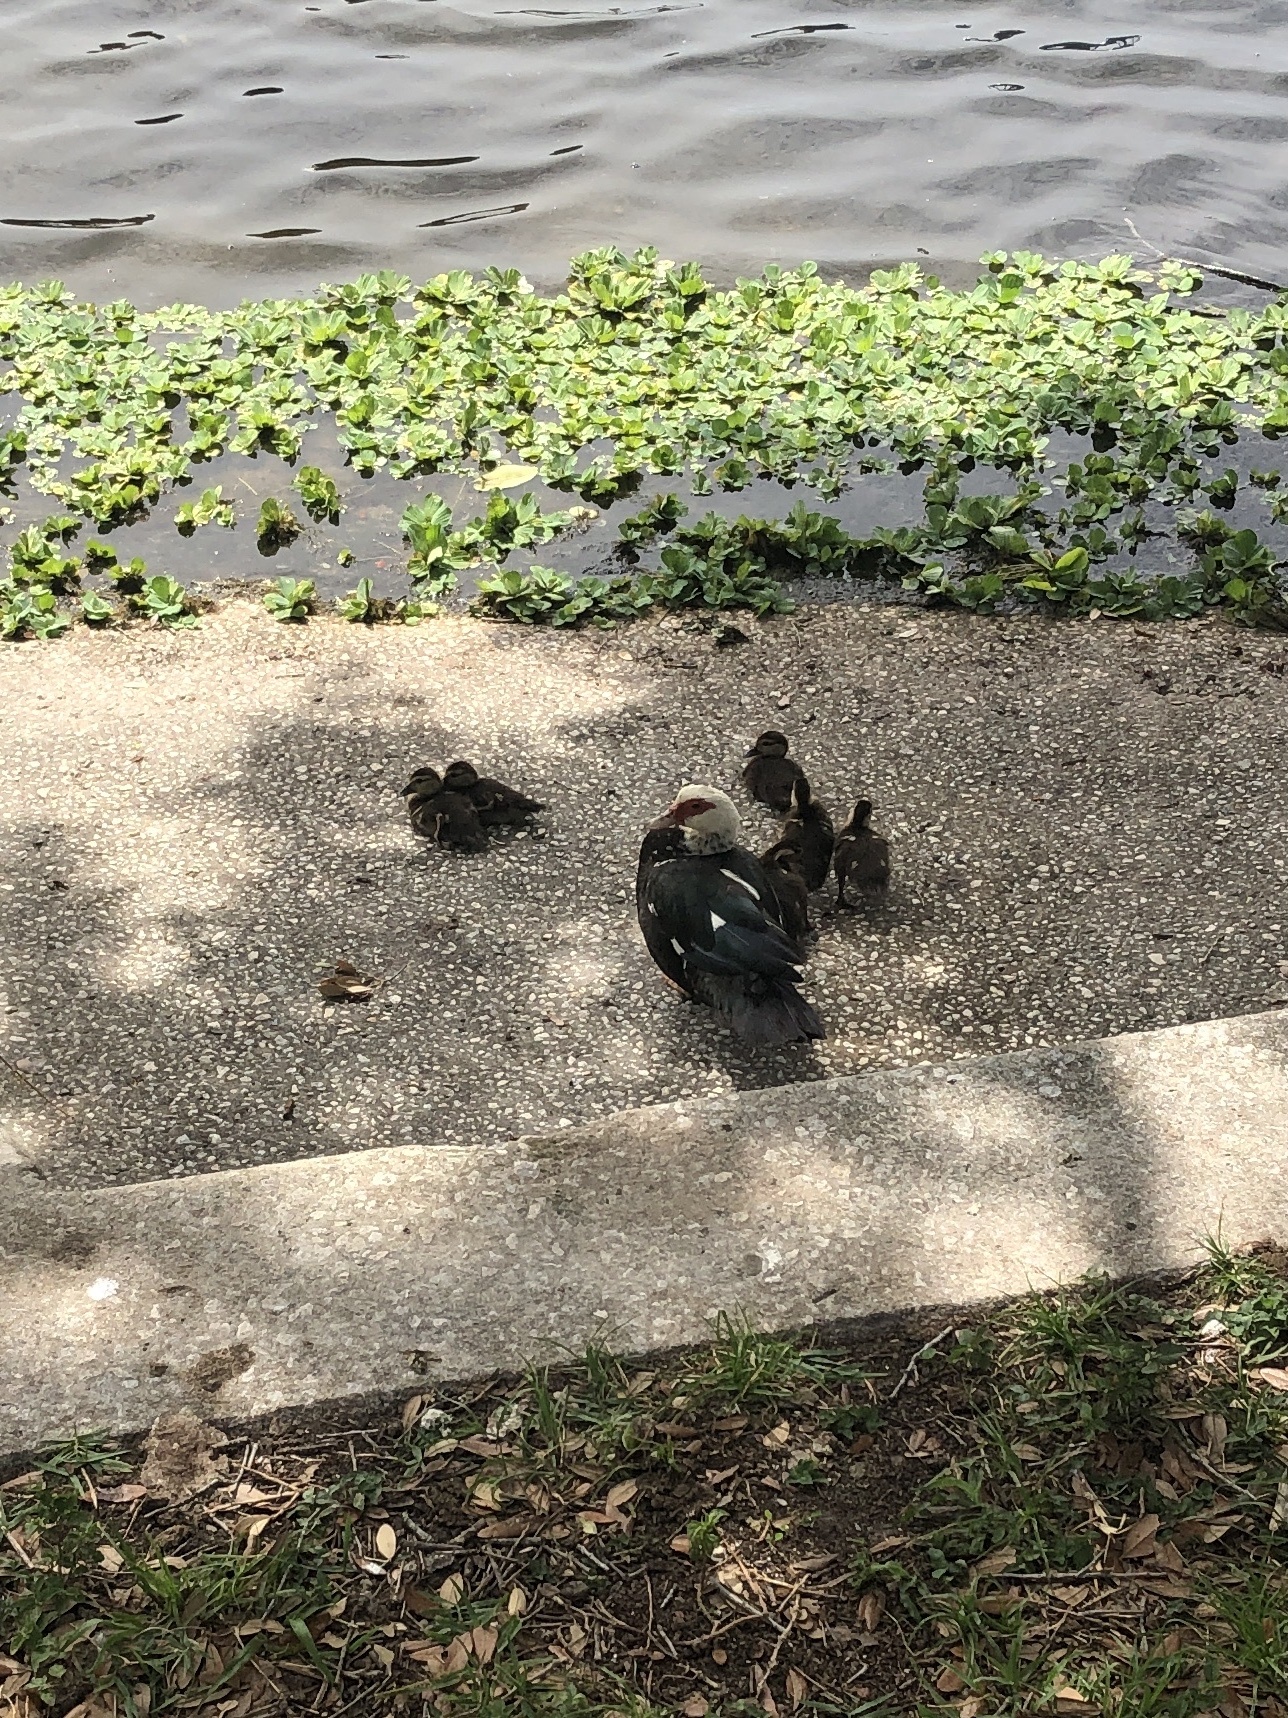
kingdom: Animalia
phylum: Chordata
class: Aves
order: Anseriformes
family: Anatidae
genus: Cairina
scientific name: Cairina moschata
